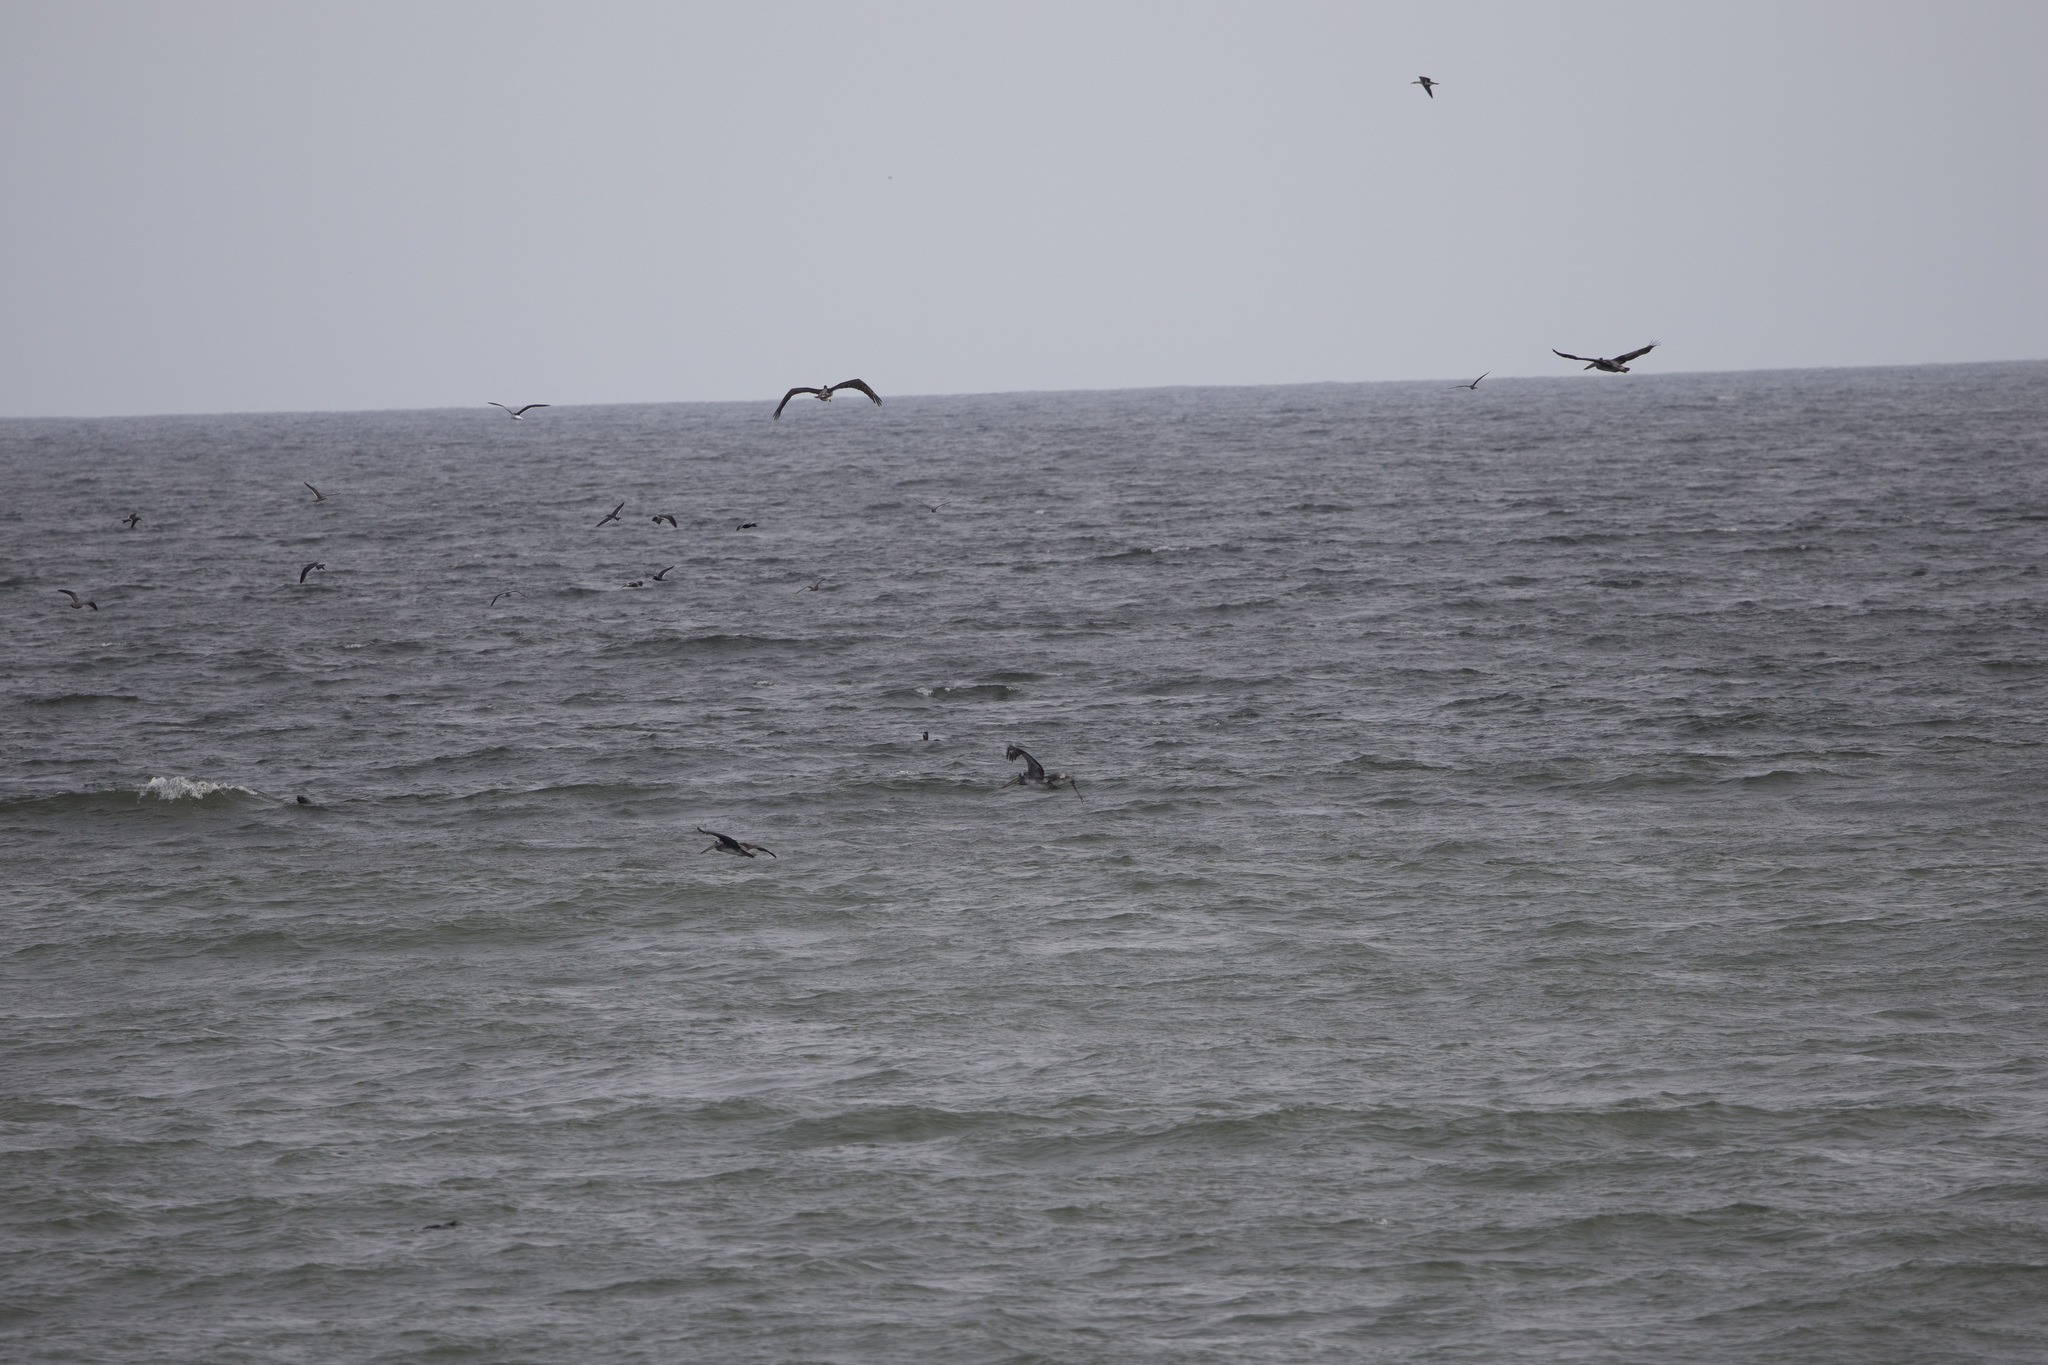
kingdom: Animalia
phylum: Chordata
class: Aves
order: Pelecaniformes
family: Pelecanidae
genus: Pelecanus
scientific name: Pelecanus thagus
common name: Peruvian pelican
